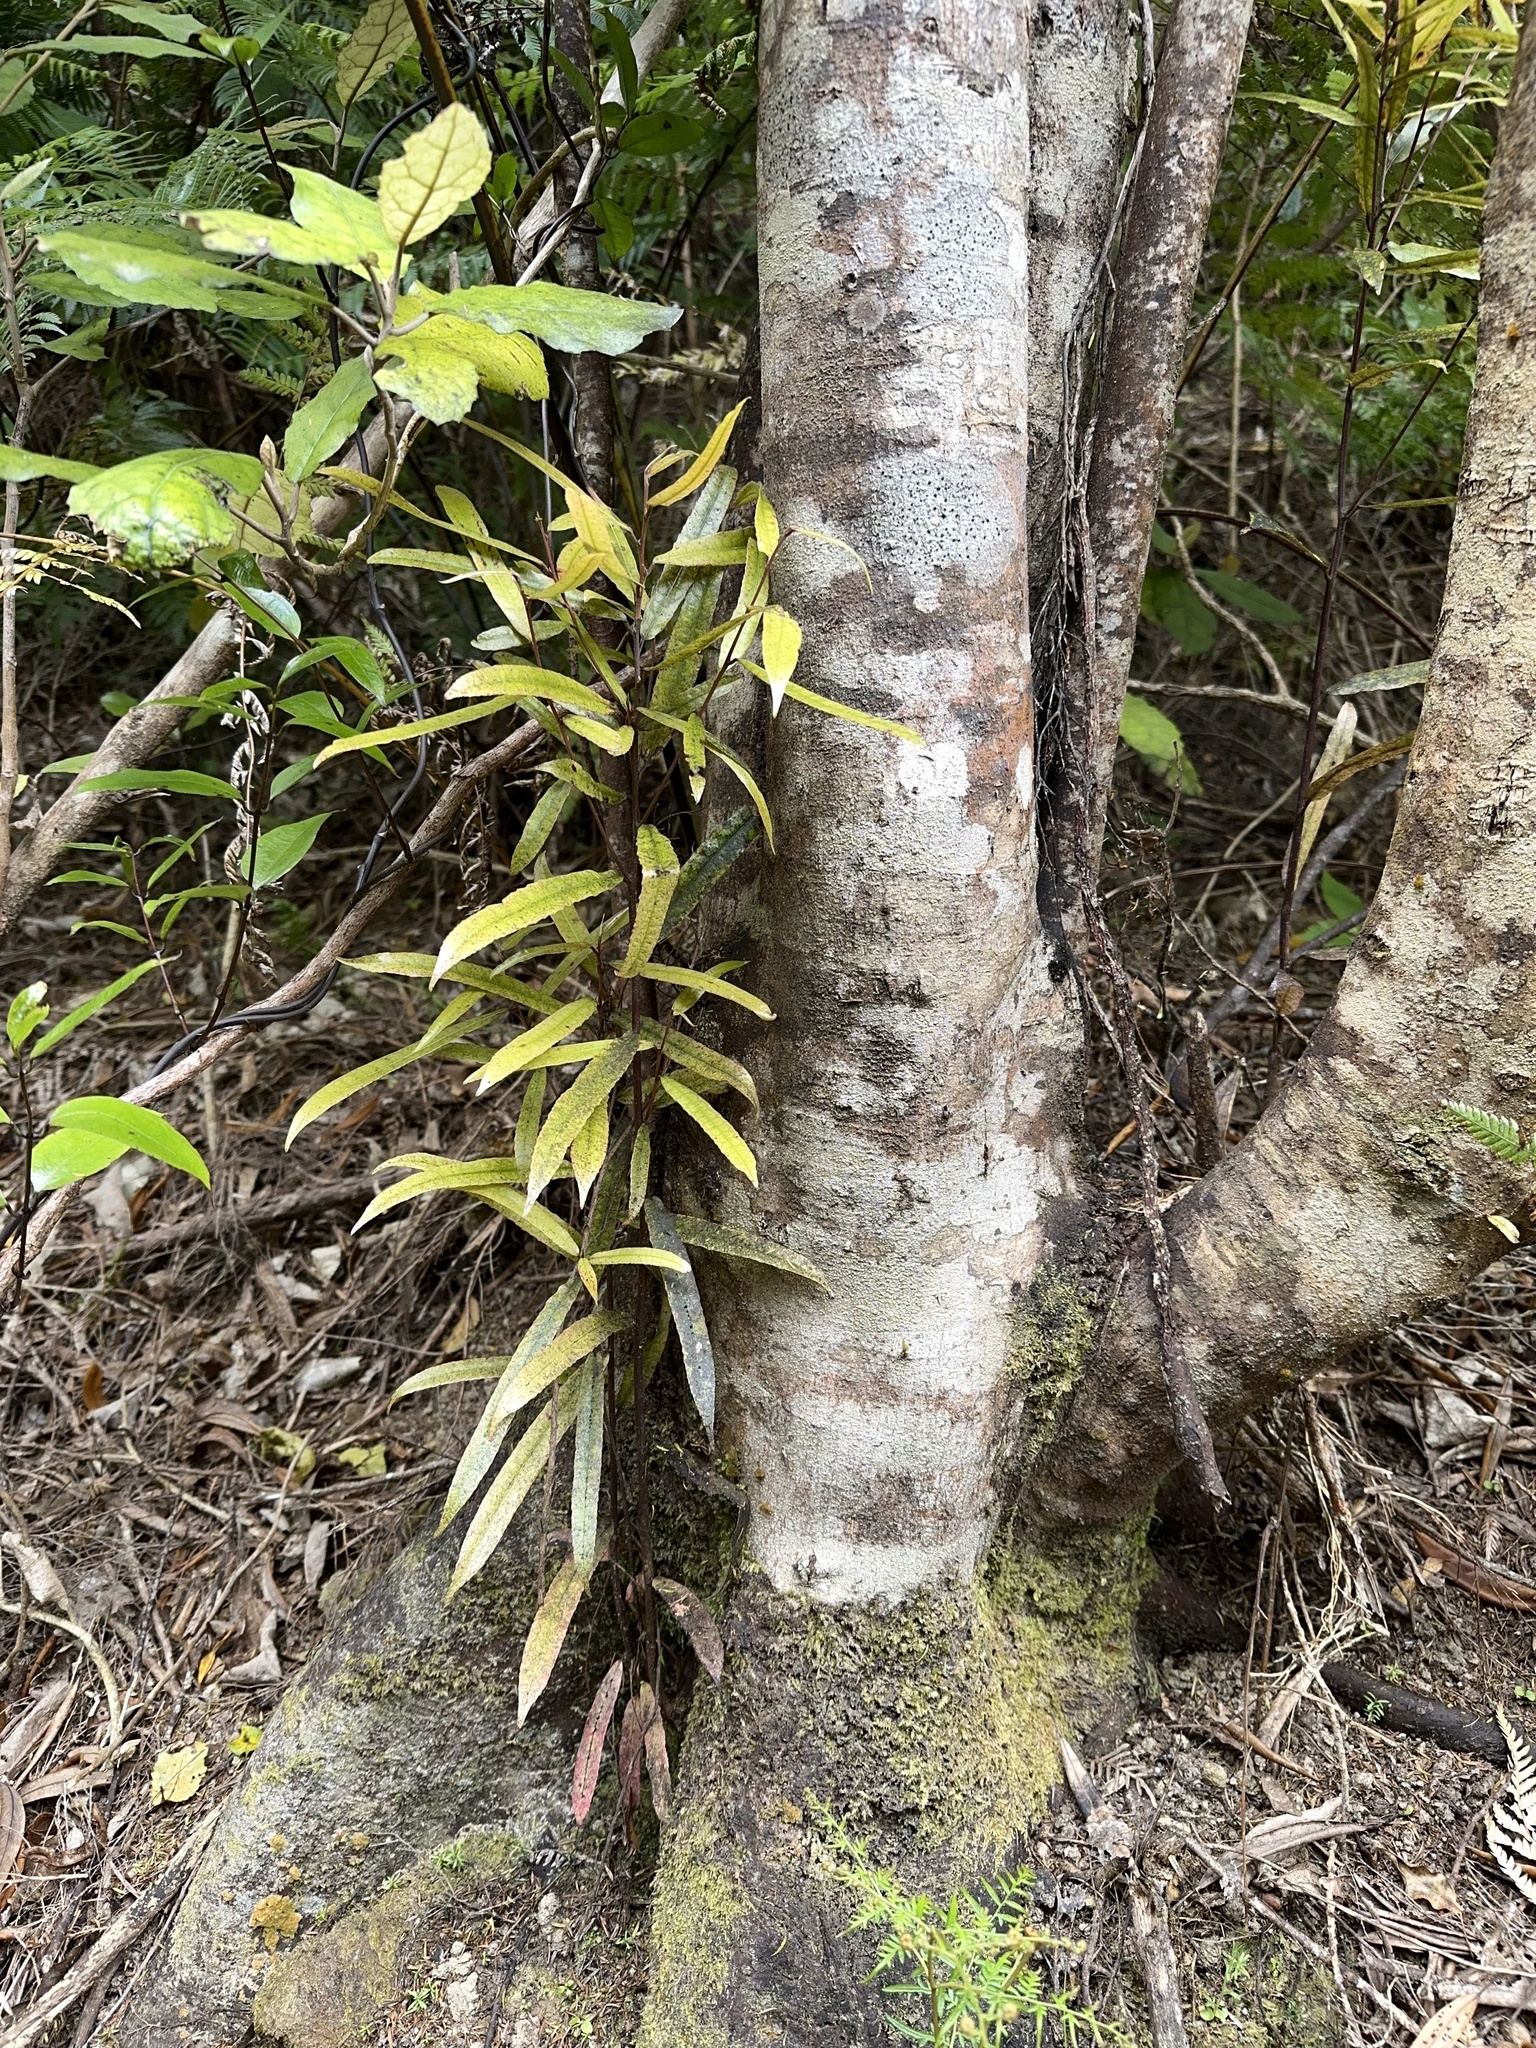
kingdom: Plantae
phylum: Tracheophyta
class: Magnoliopsida
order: Oxalidales
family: Elaeocarpaceae
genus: Elaeocarpus
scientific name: Elaeocarpus dentatus
